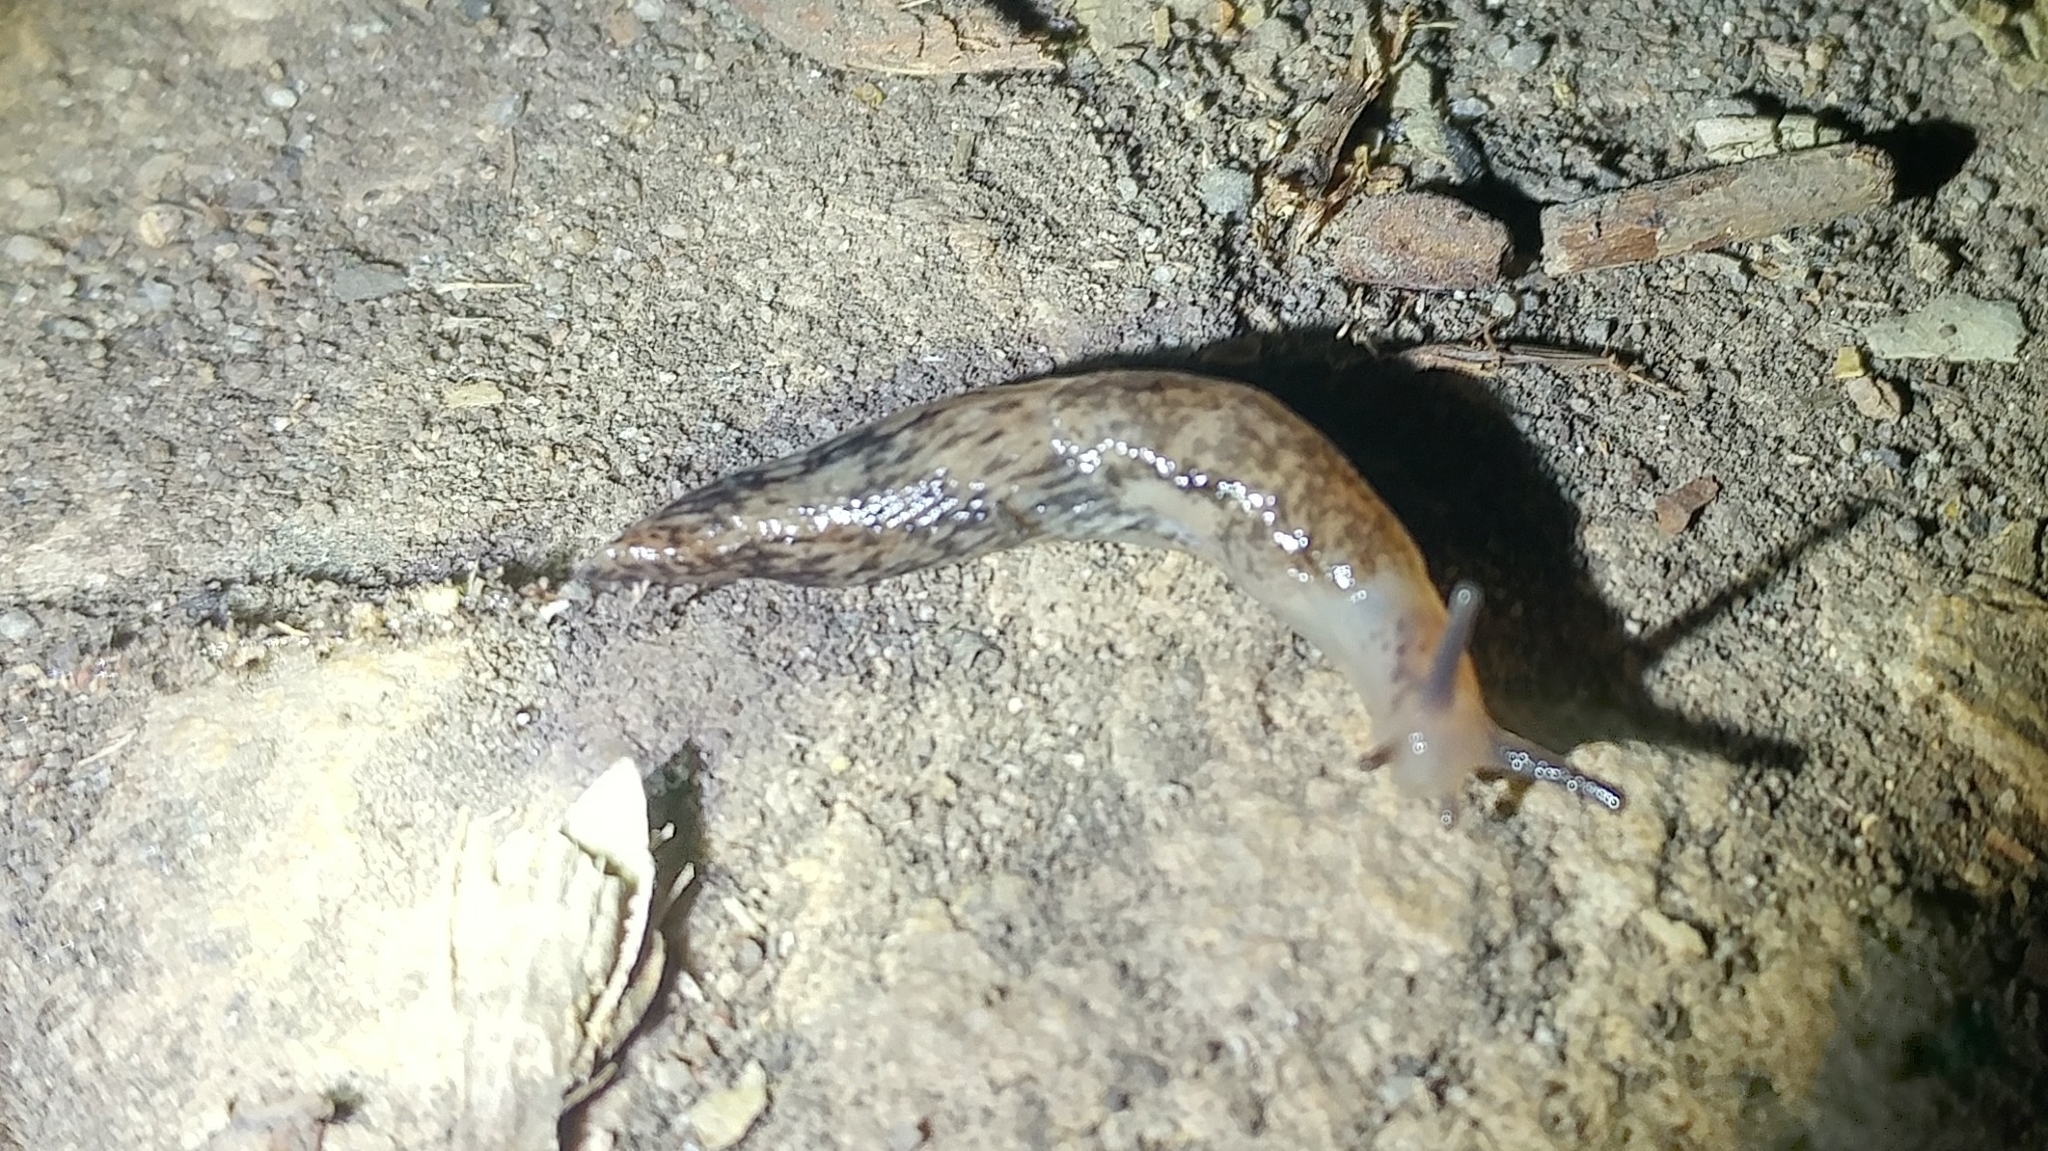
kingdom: Animalia
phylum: Mollusca
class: Gastropoda
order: Stylommatophora
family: Agriolimacidae
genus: Deroceras
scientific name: Deroceras reticulatum
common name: Gray field slug
